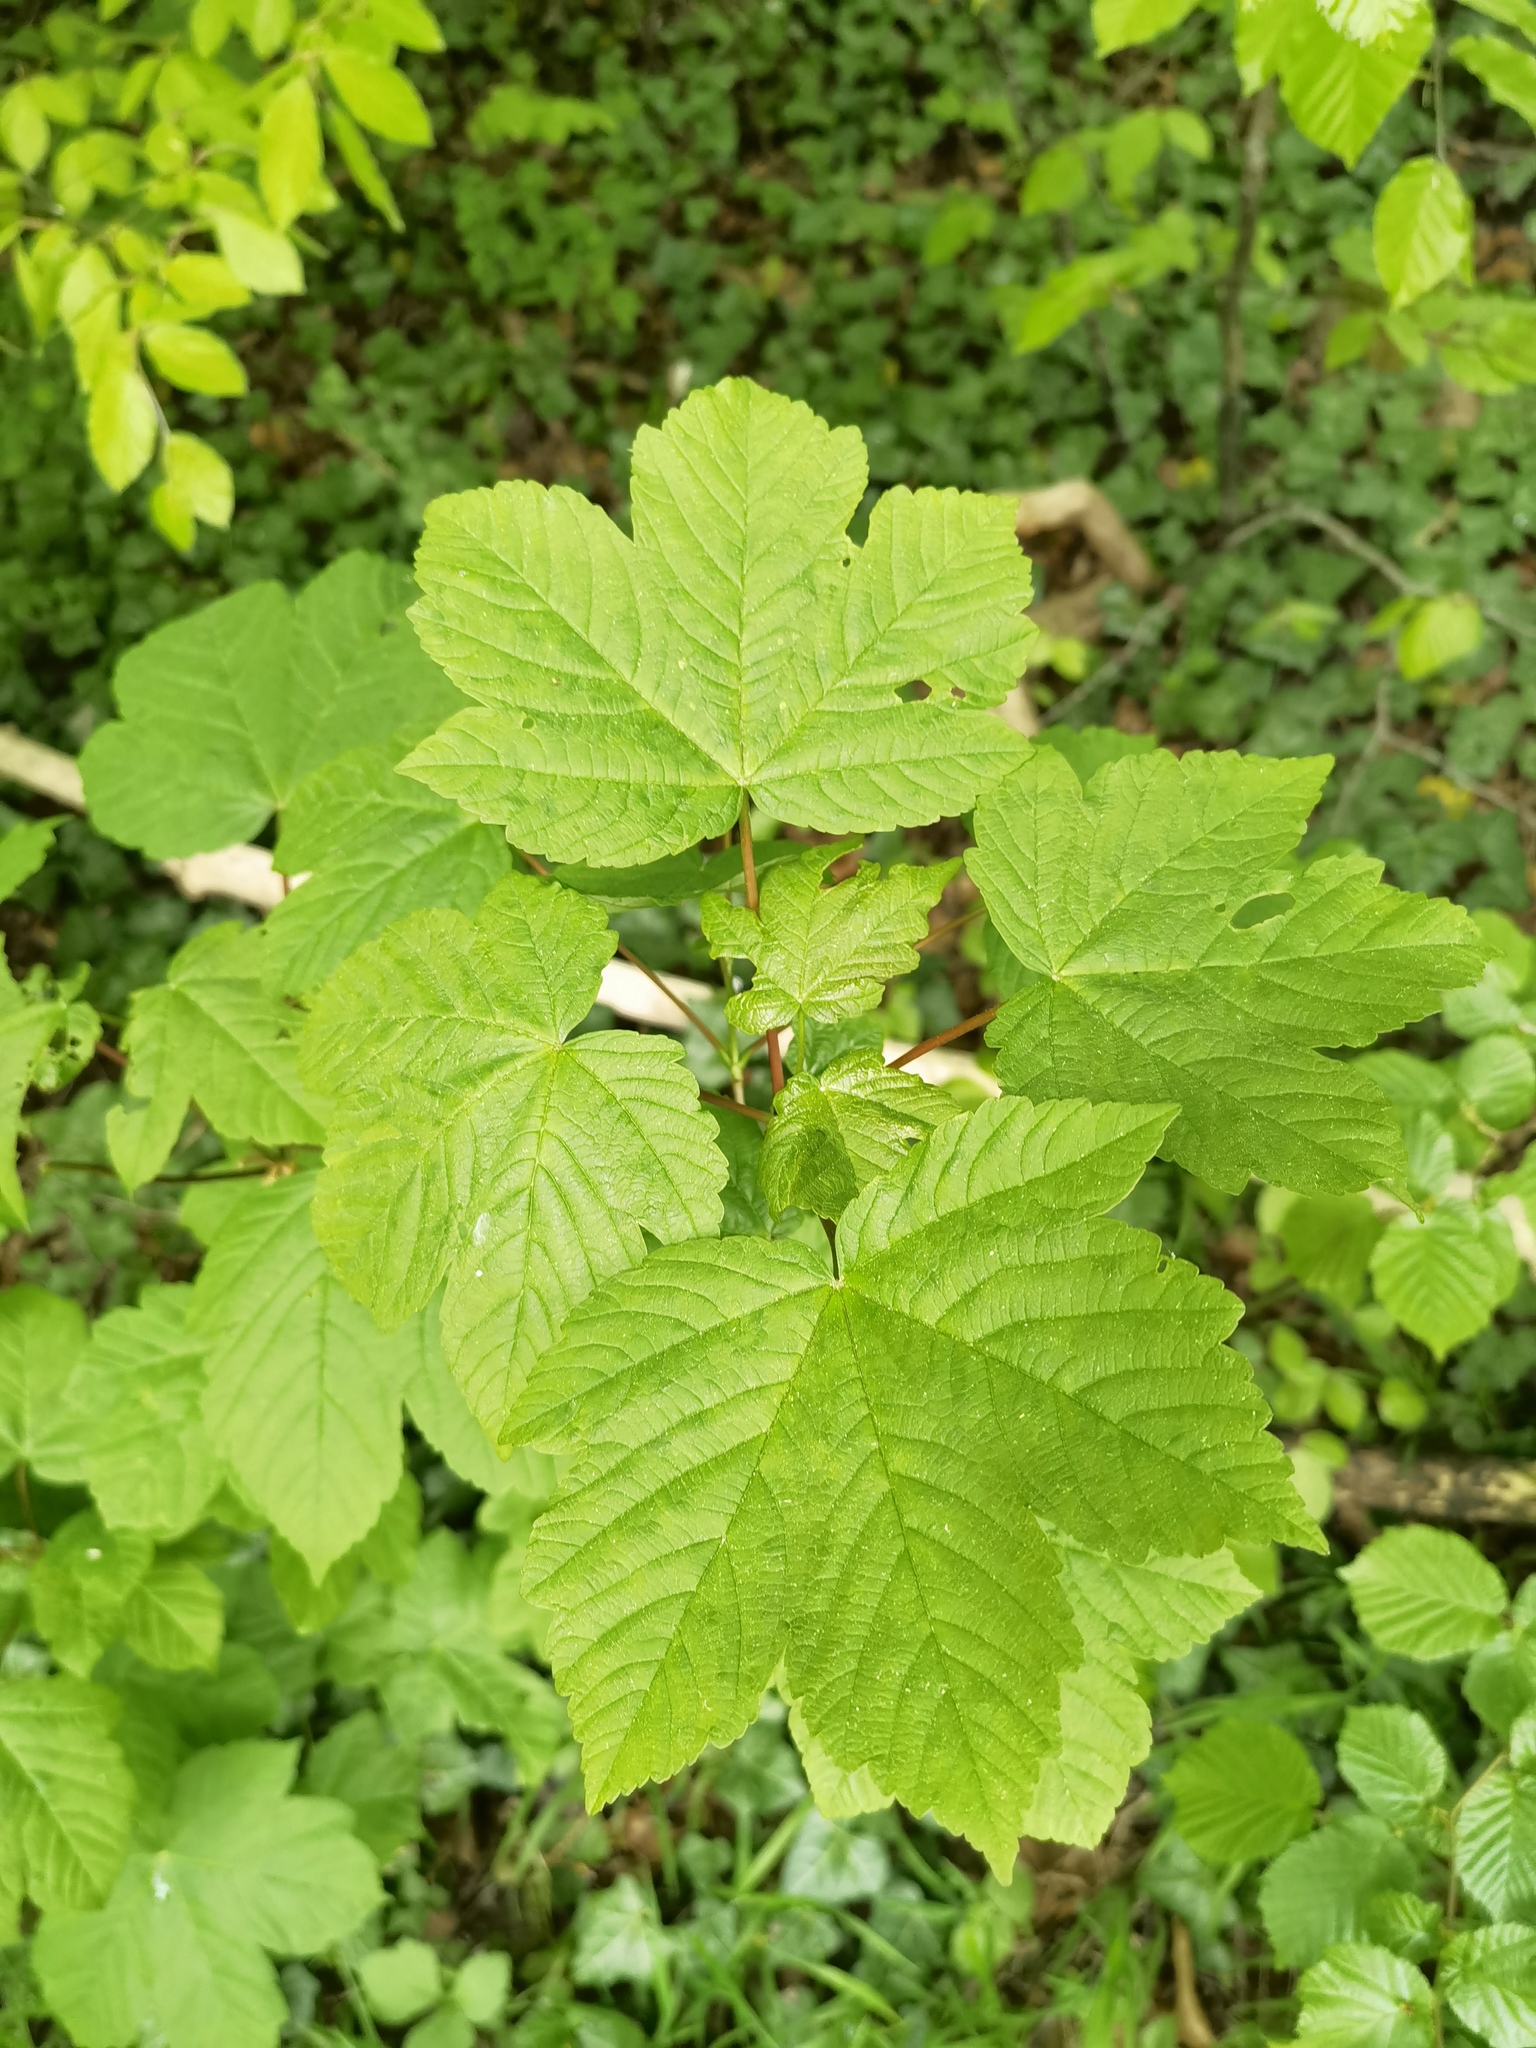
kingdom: Plantae
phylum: Tracheophyta
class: Magnoliopsida
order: Sapindales
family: Sapindaceae
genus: Acer
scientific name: Acer pseudoplatanus
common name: Sycamore
